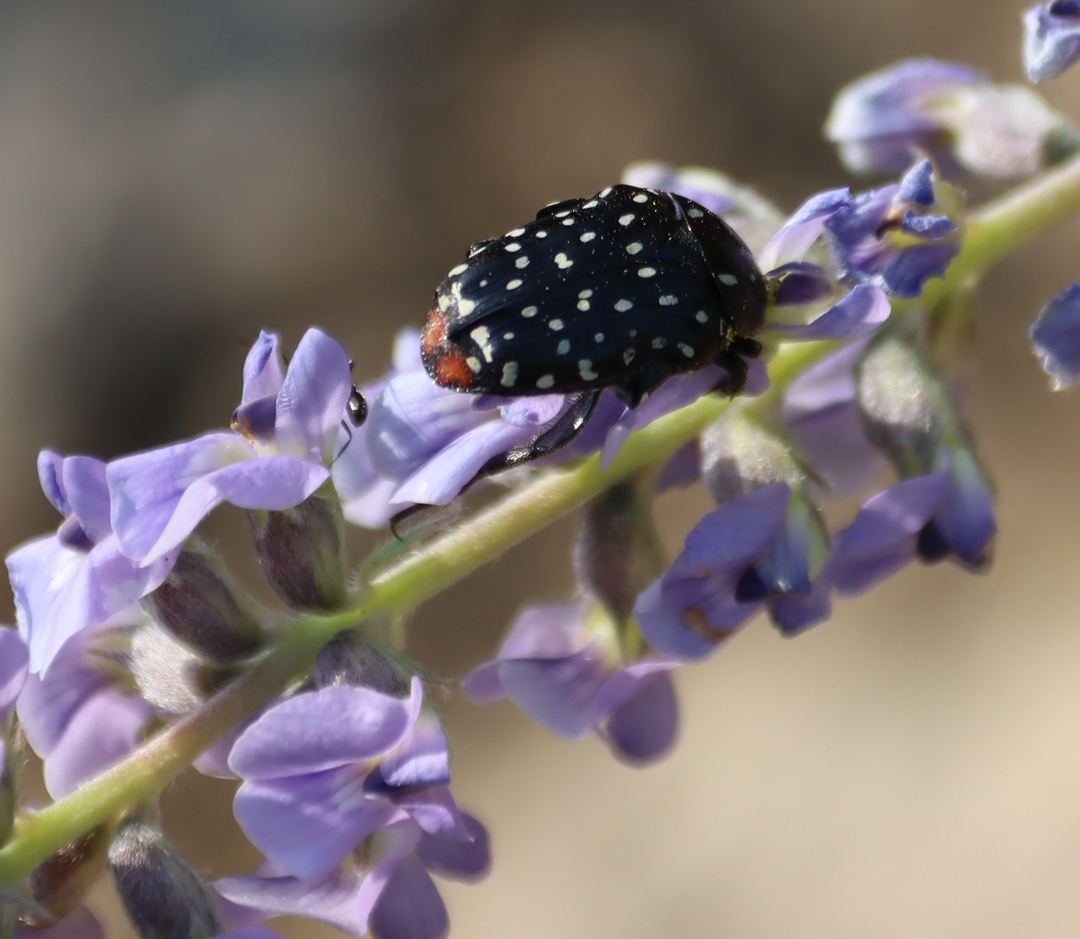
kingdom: Animalia
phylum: Arthropoda
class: Insecta
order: Coleoptera
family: Scarabaeidae
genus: Oxythyrea
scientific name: Oxythyrea
